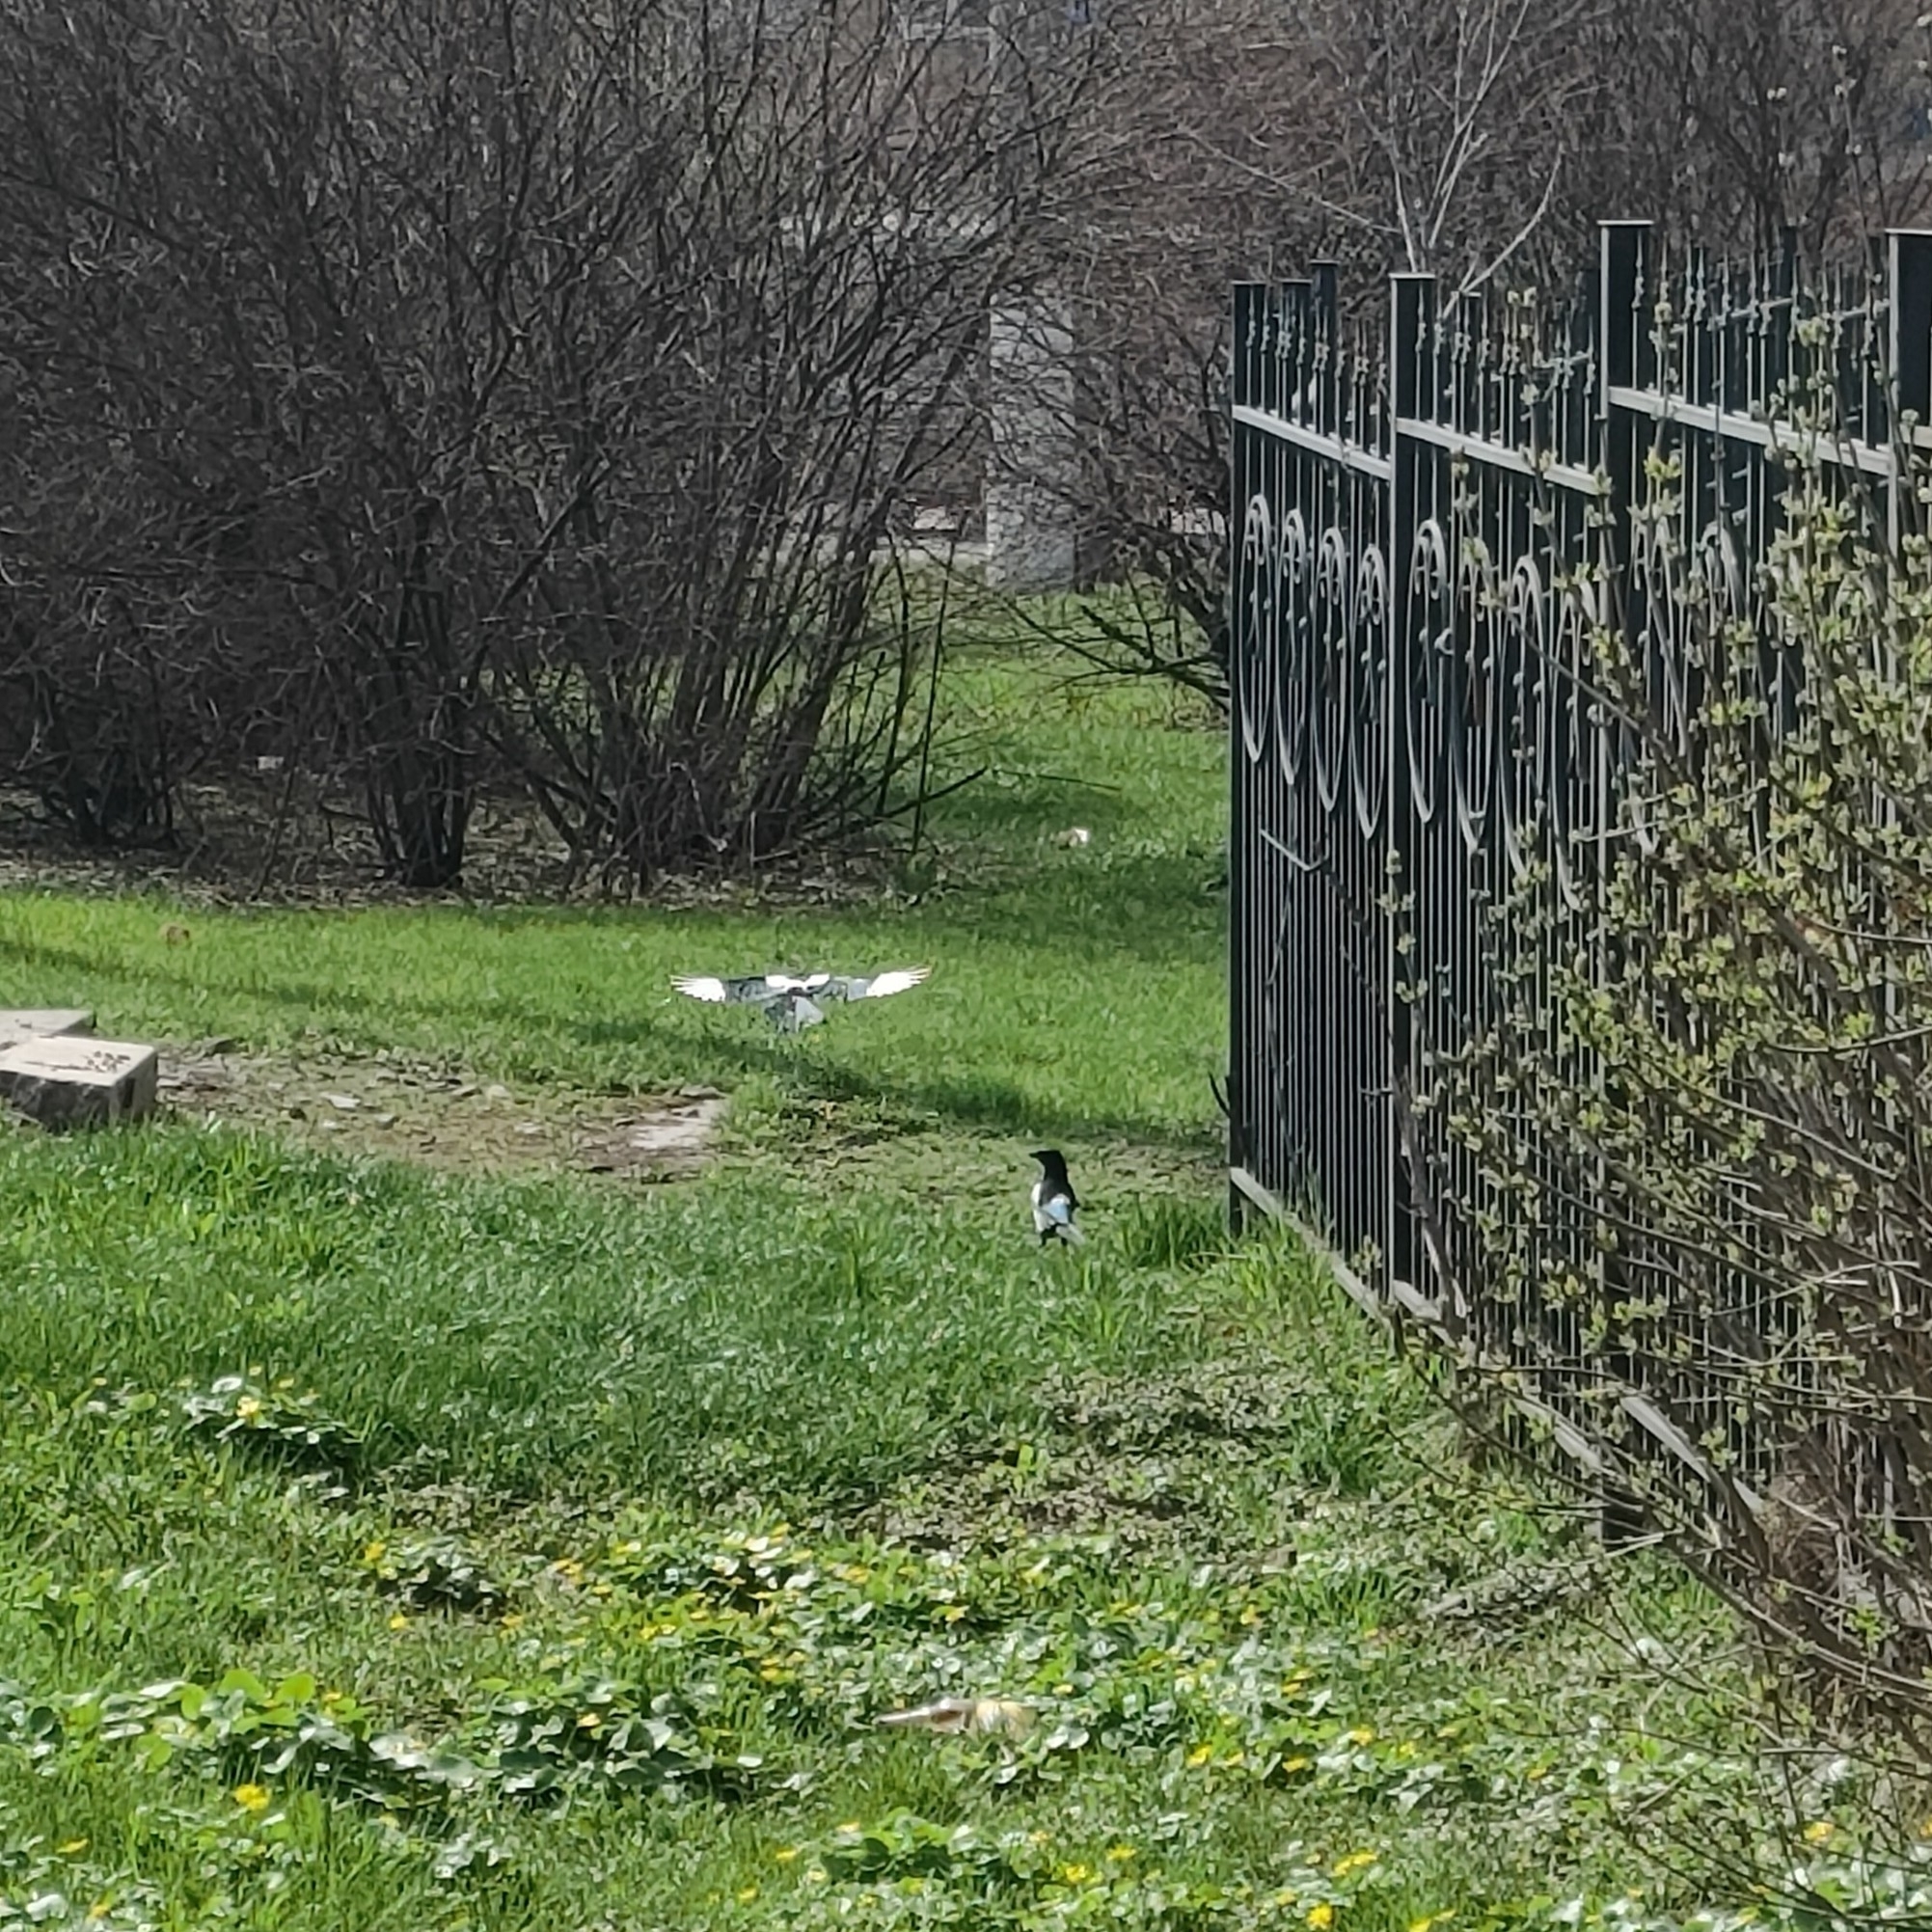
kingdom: Animalia
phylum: Chordata
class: Aves
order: Passeriformes
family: Corvidae
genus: Pica
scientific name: Pica pica
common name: Eurasian magpie
